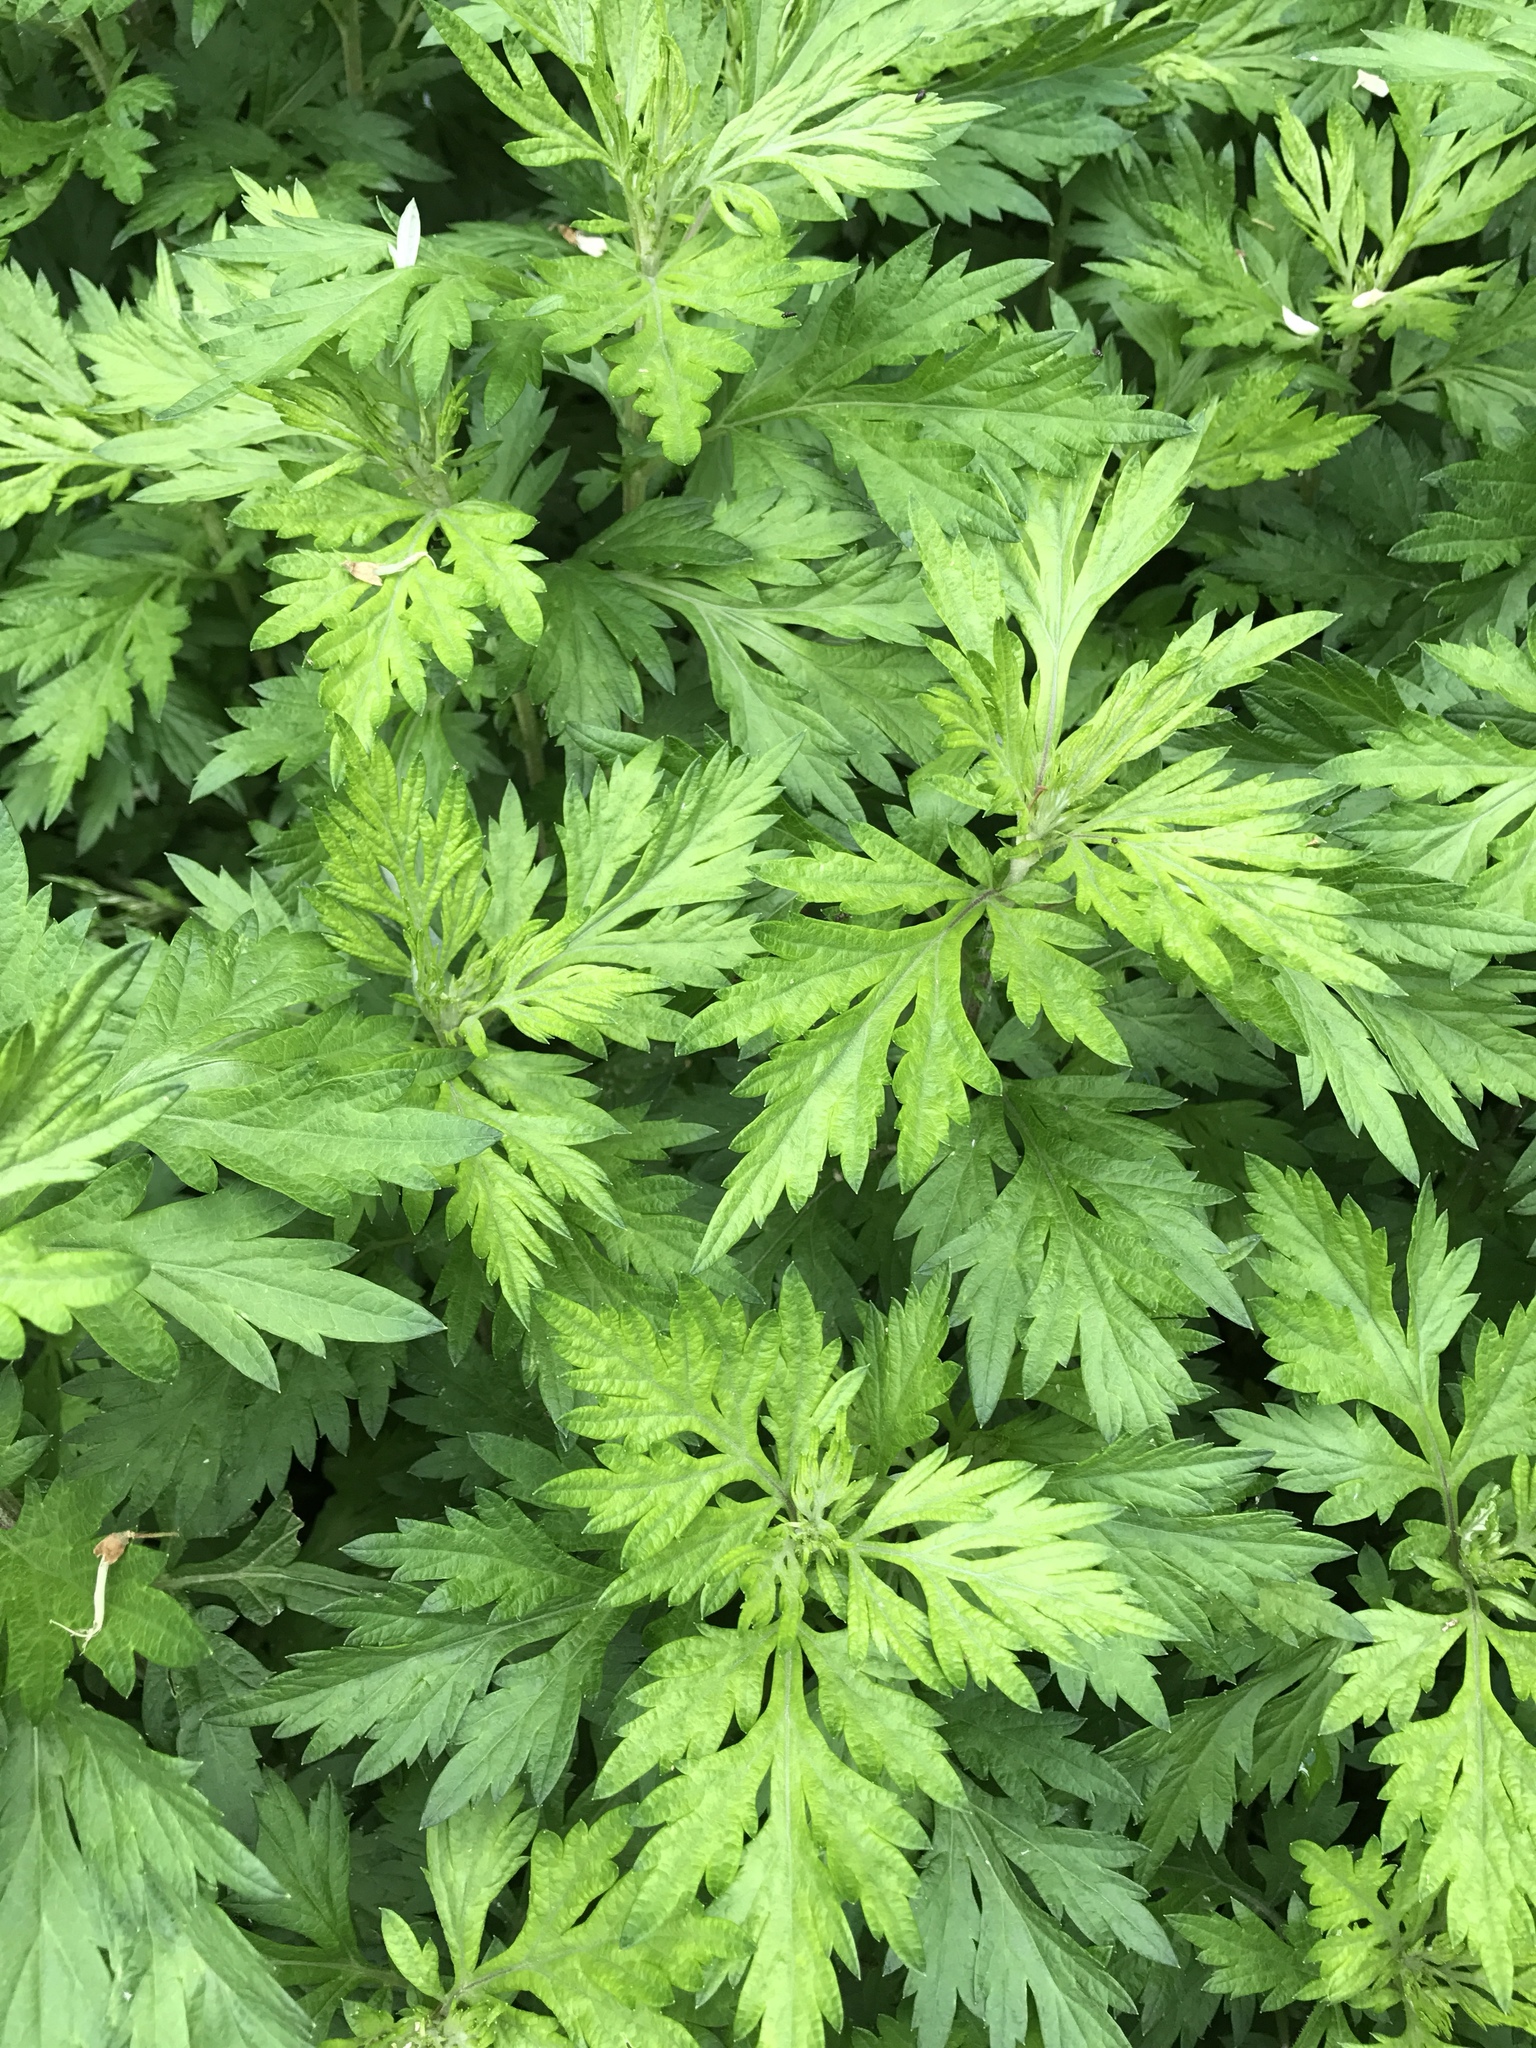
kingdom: Plantae
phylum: Tracheophyta
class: Magnoliopsida
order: Asterales
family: Asteraceae
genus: Artemisia
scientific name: Artemisia vulgaris
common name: Mugwort
